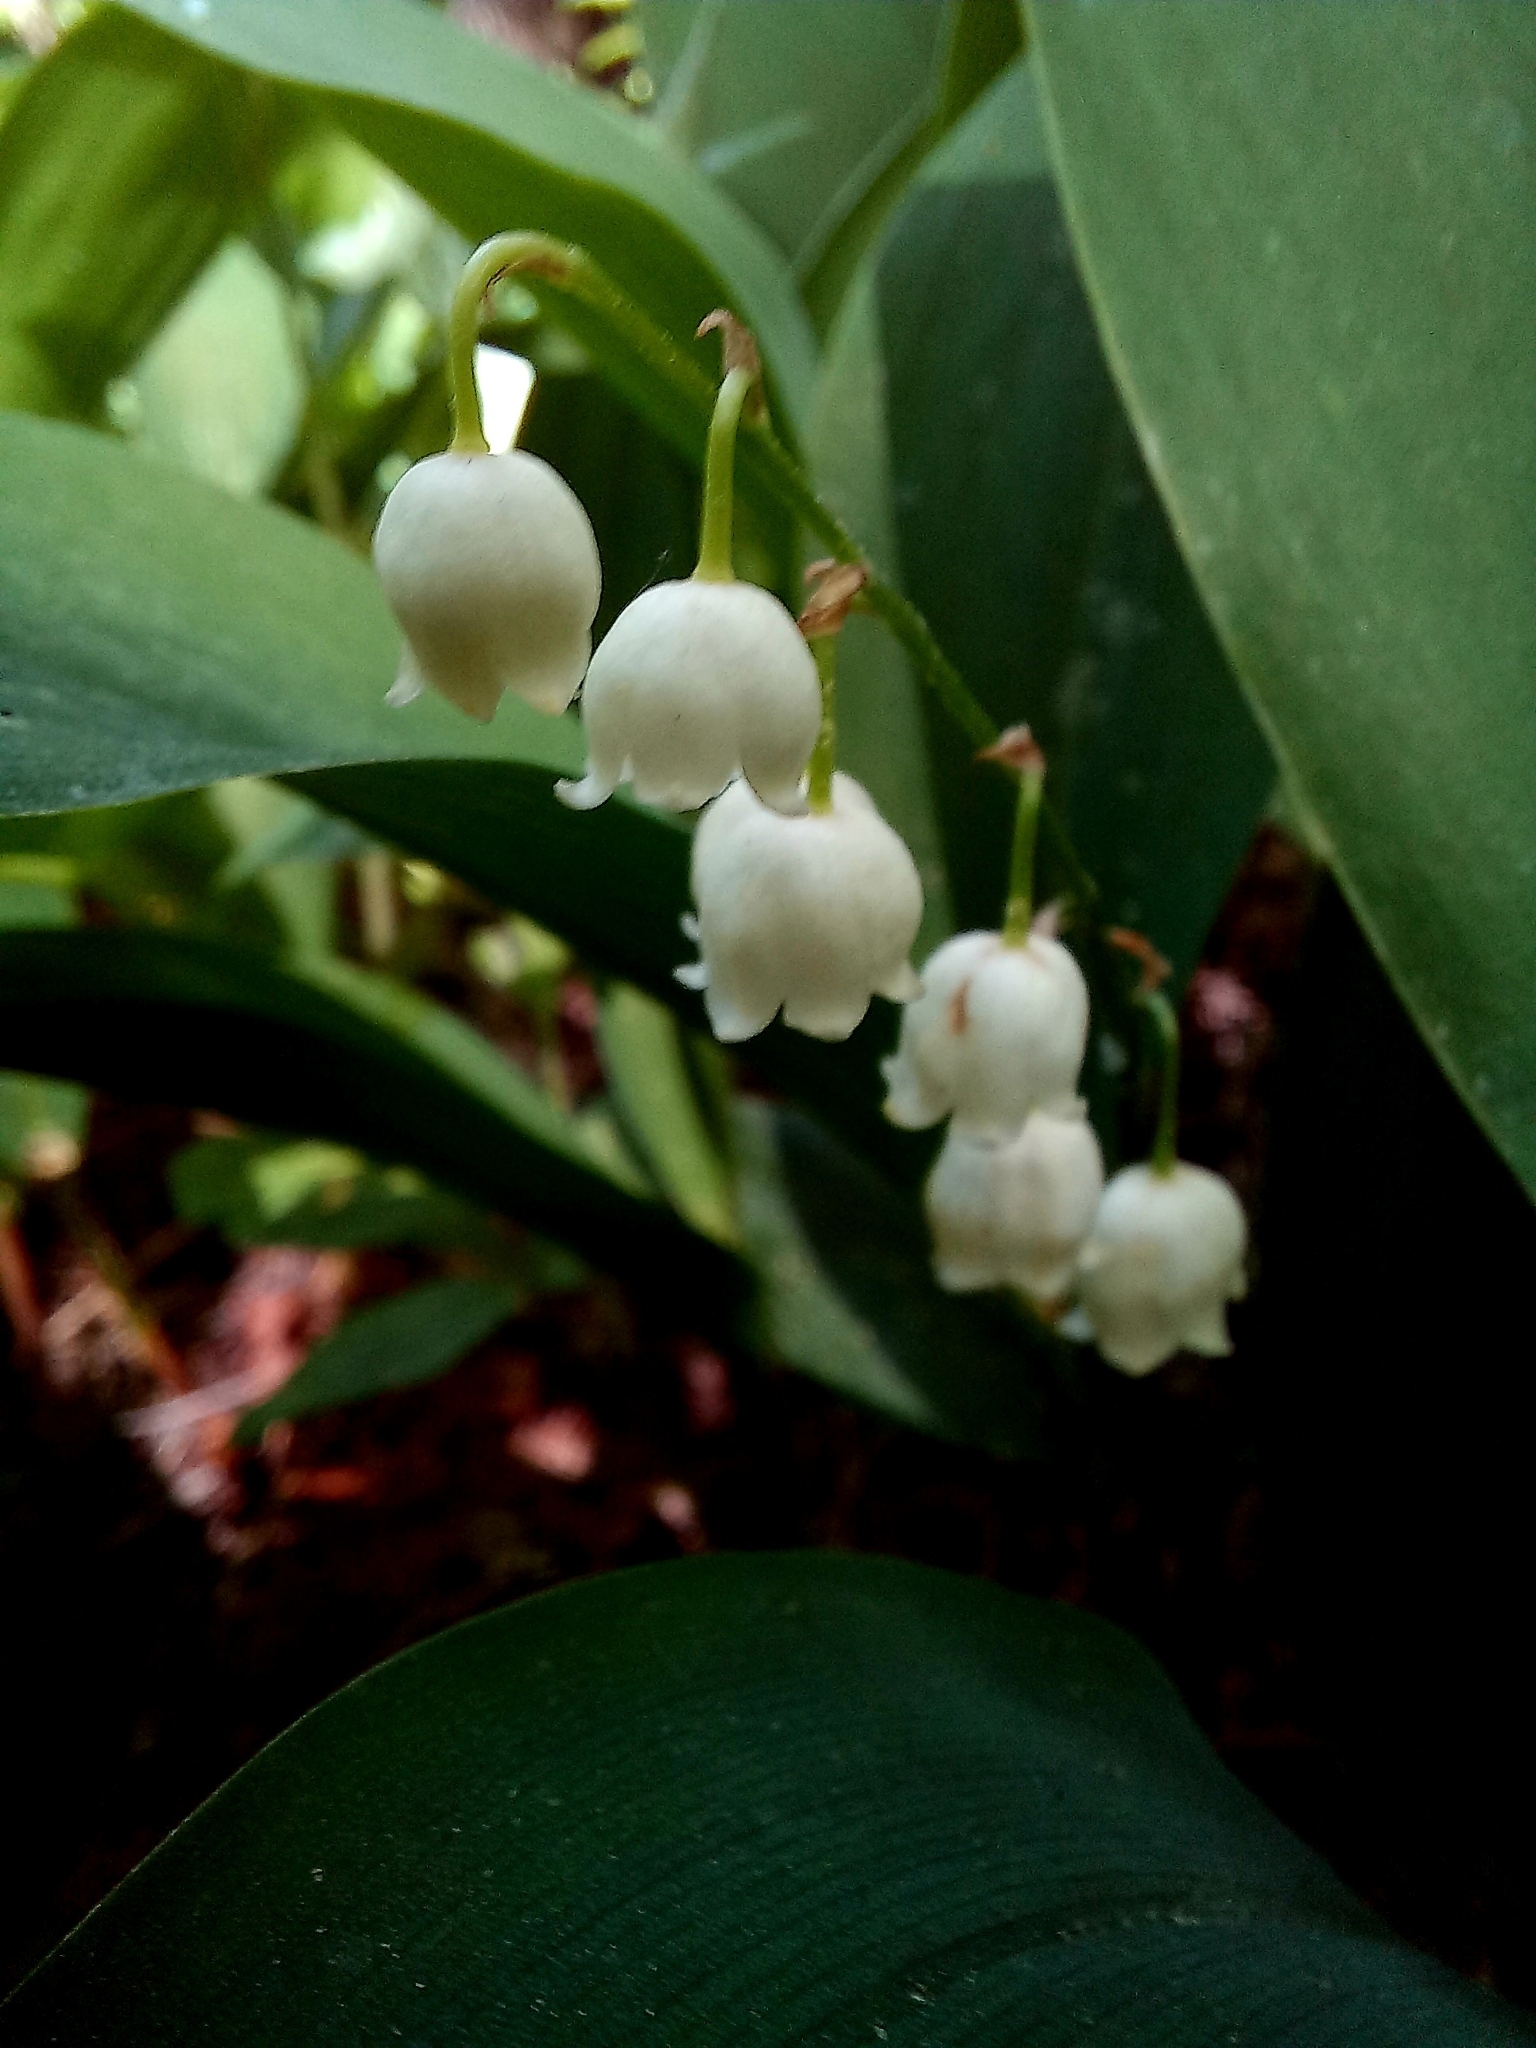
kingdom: Plantae
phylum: Tracheophyta
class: Liliopsida
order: Asparagales
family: Asparagaceae
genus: Convallaria
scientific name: Convallaria majalis
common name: Lily-of-the-valley
